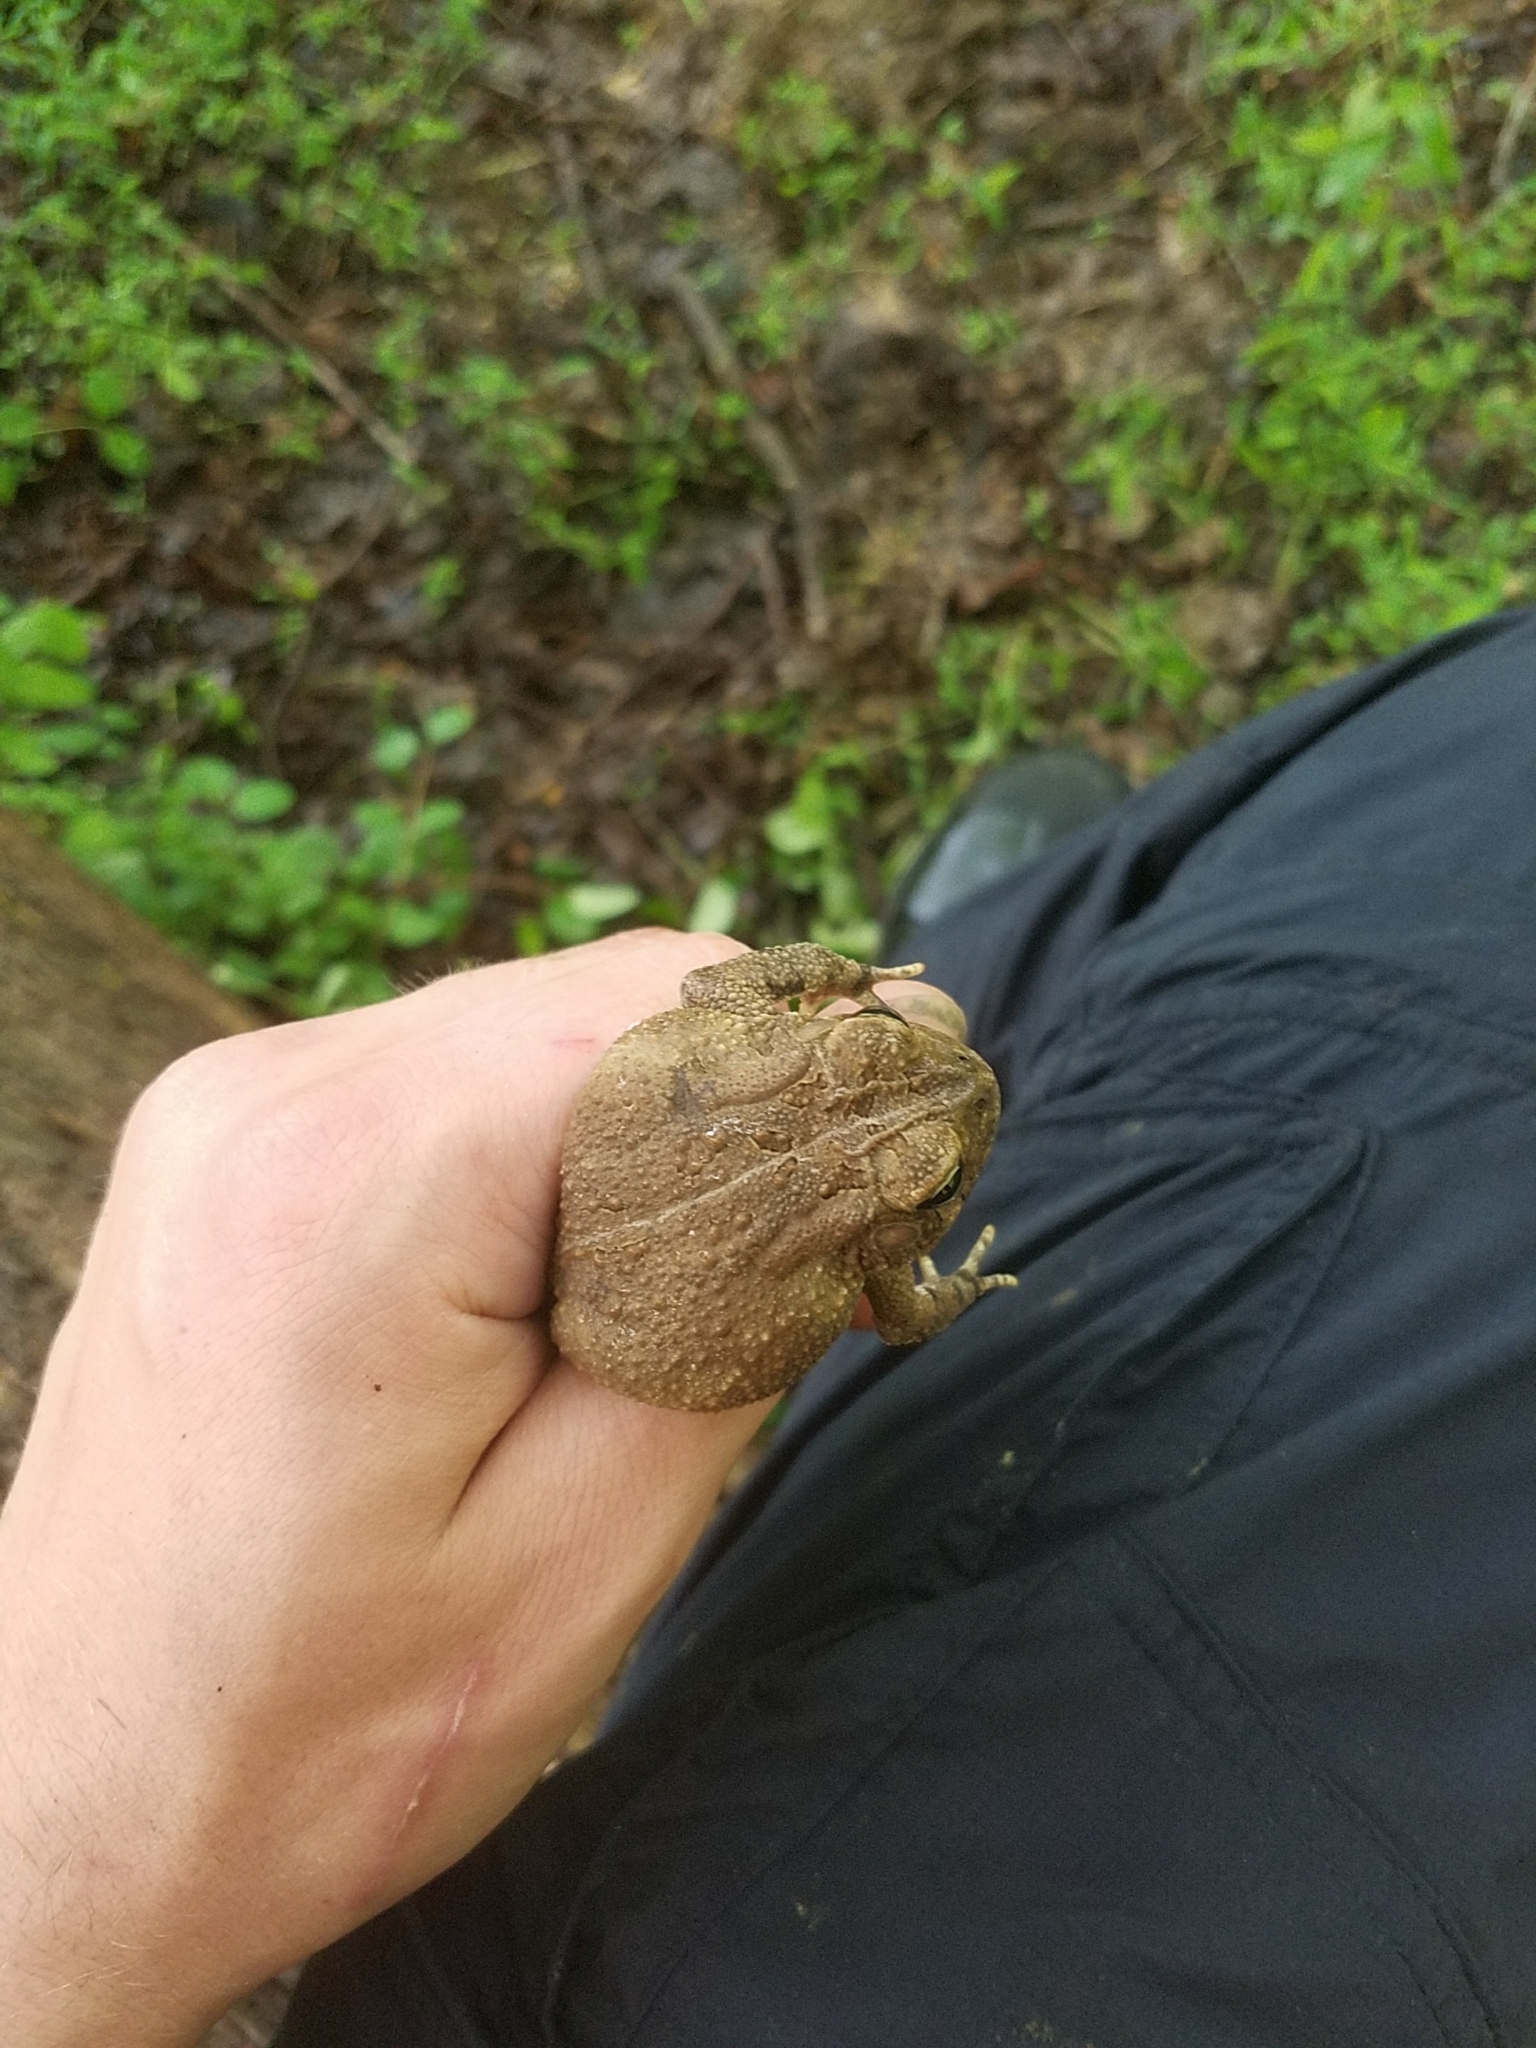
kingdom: Animalia
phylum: Chordata
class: Amphibia
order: Anura
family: Bufonidae
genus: Anaxyrus
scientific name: Anaxyrus americanus
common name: American toad
